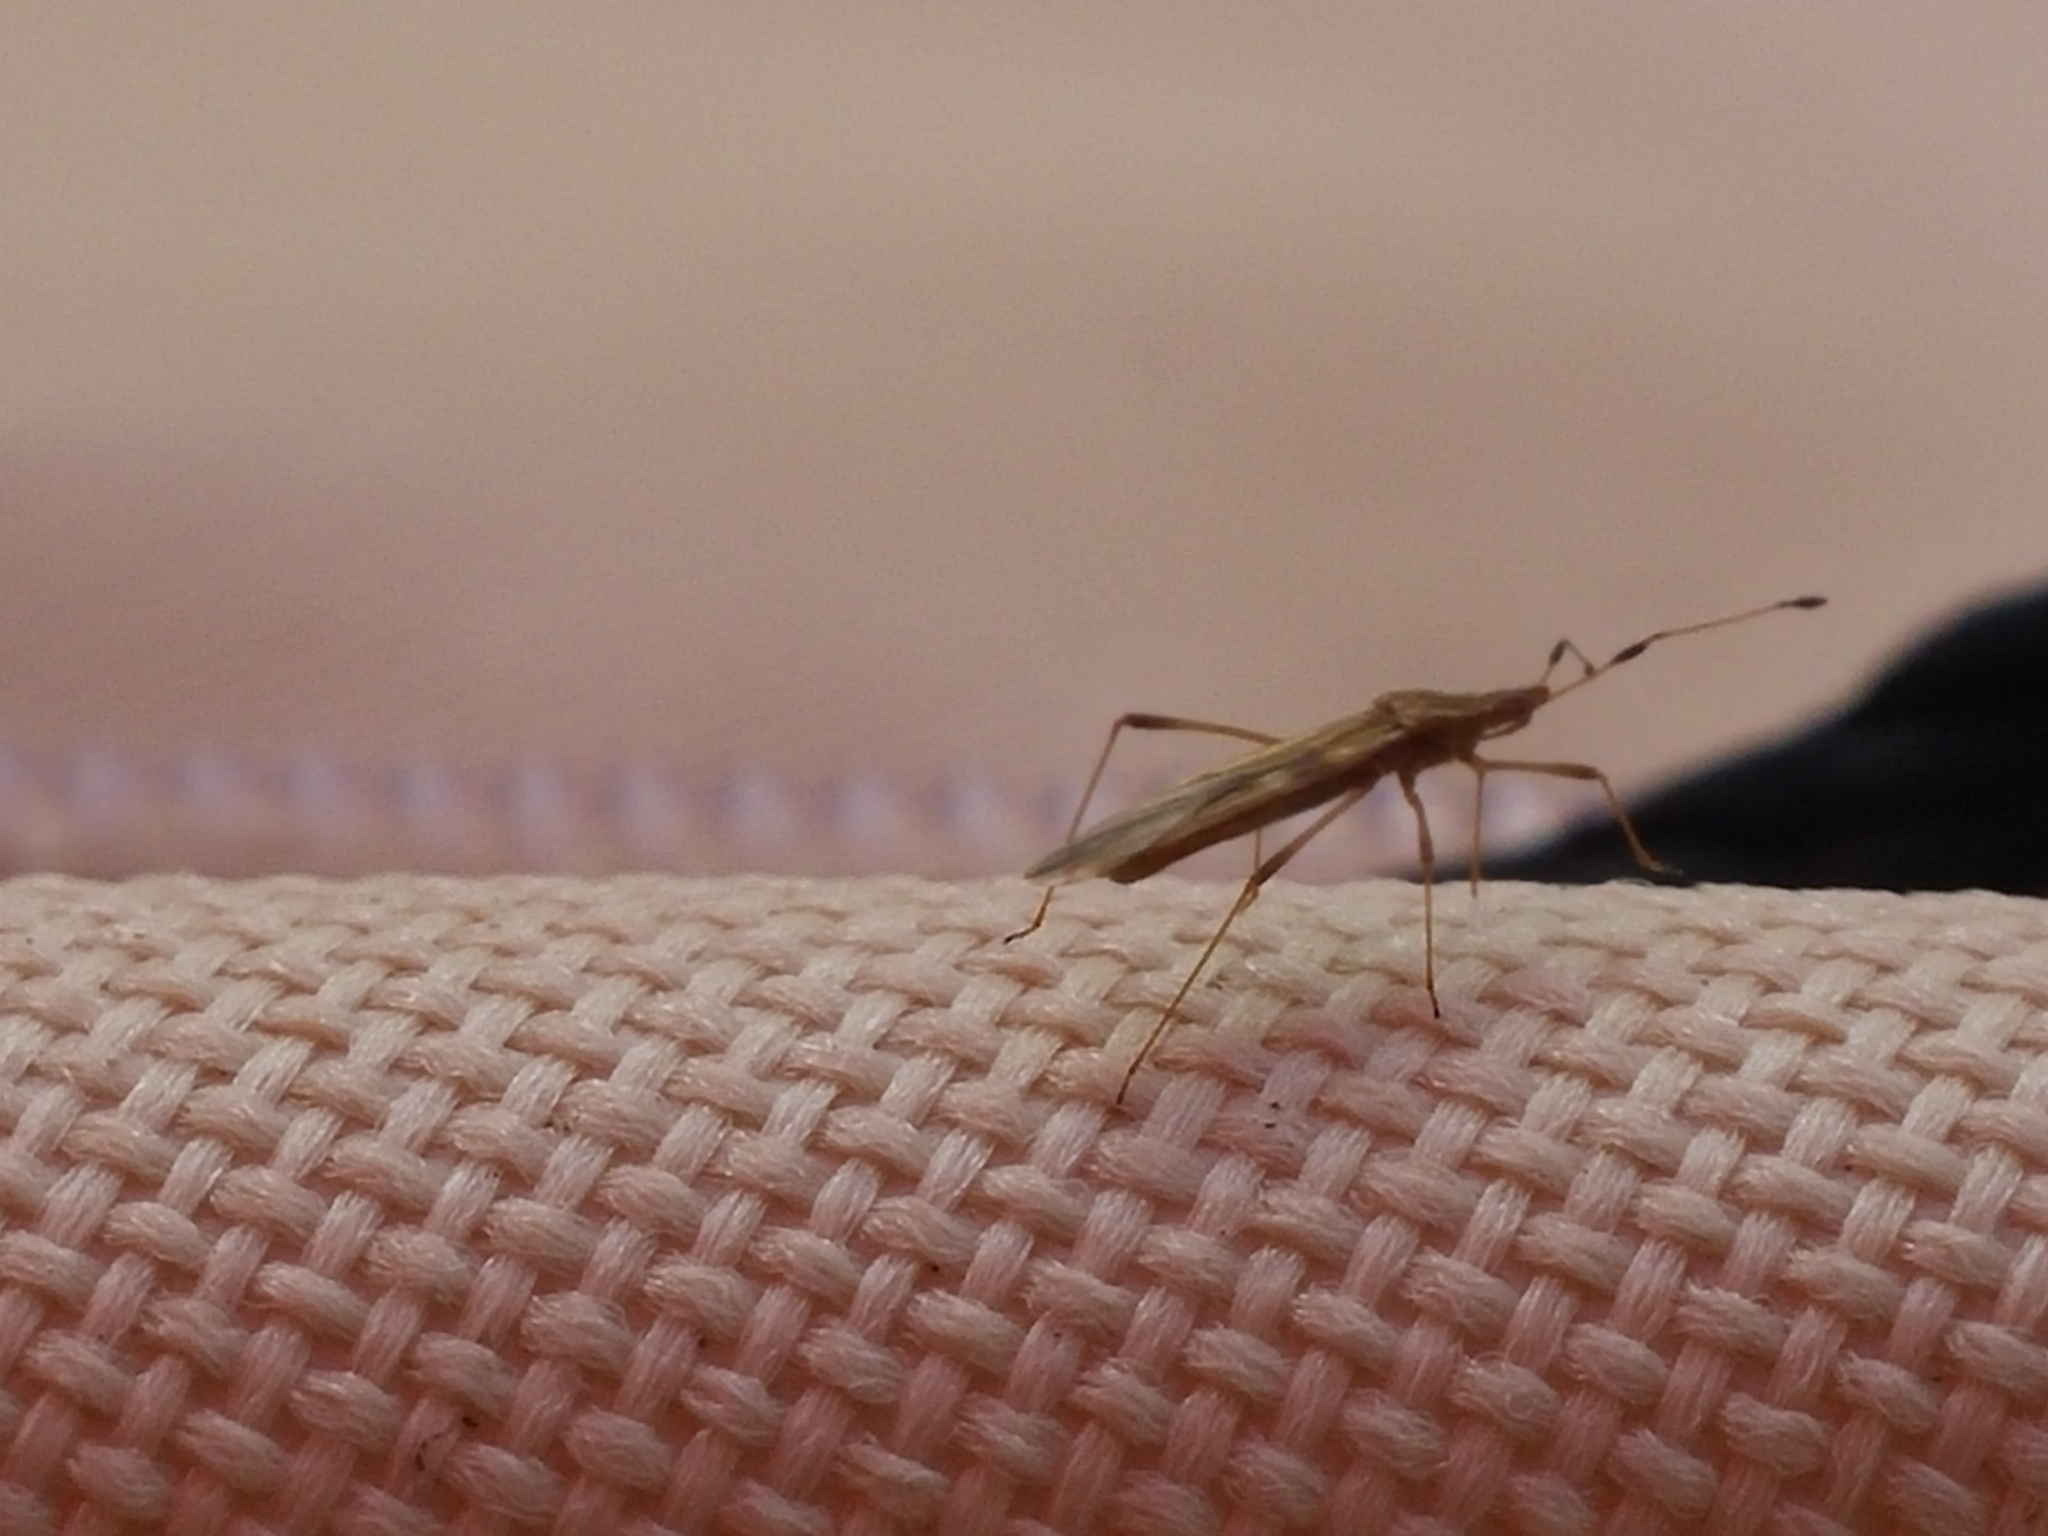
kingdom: Animalia
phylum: Arthropoda
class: Insecta
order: Hemiptera
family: Berytidae
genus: Berytinus
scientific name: Berytinus minor
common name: Stilt bug
